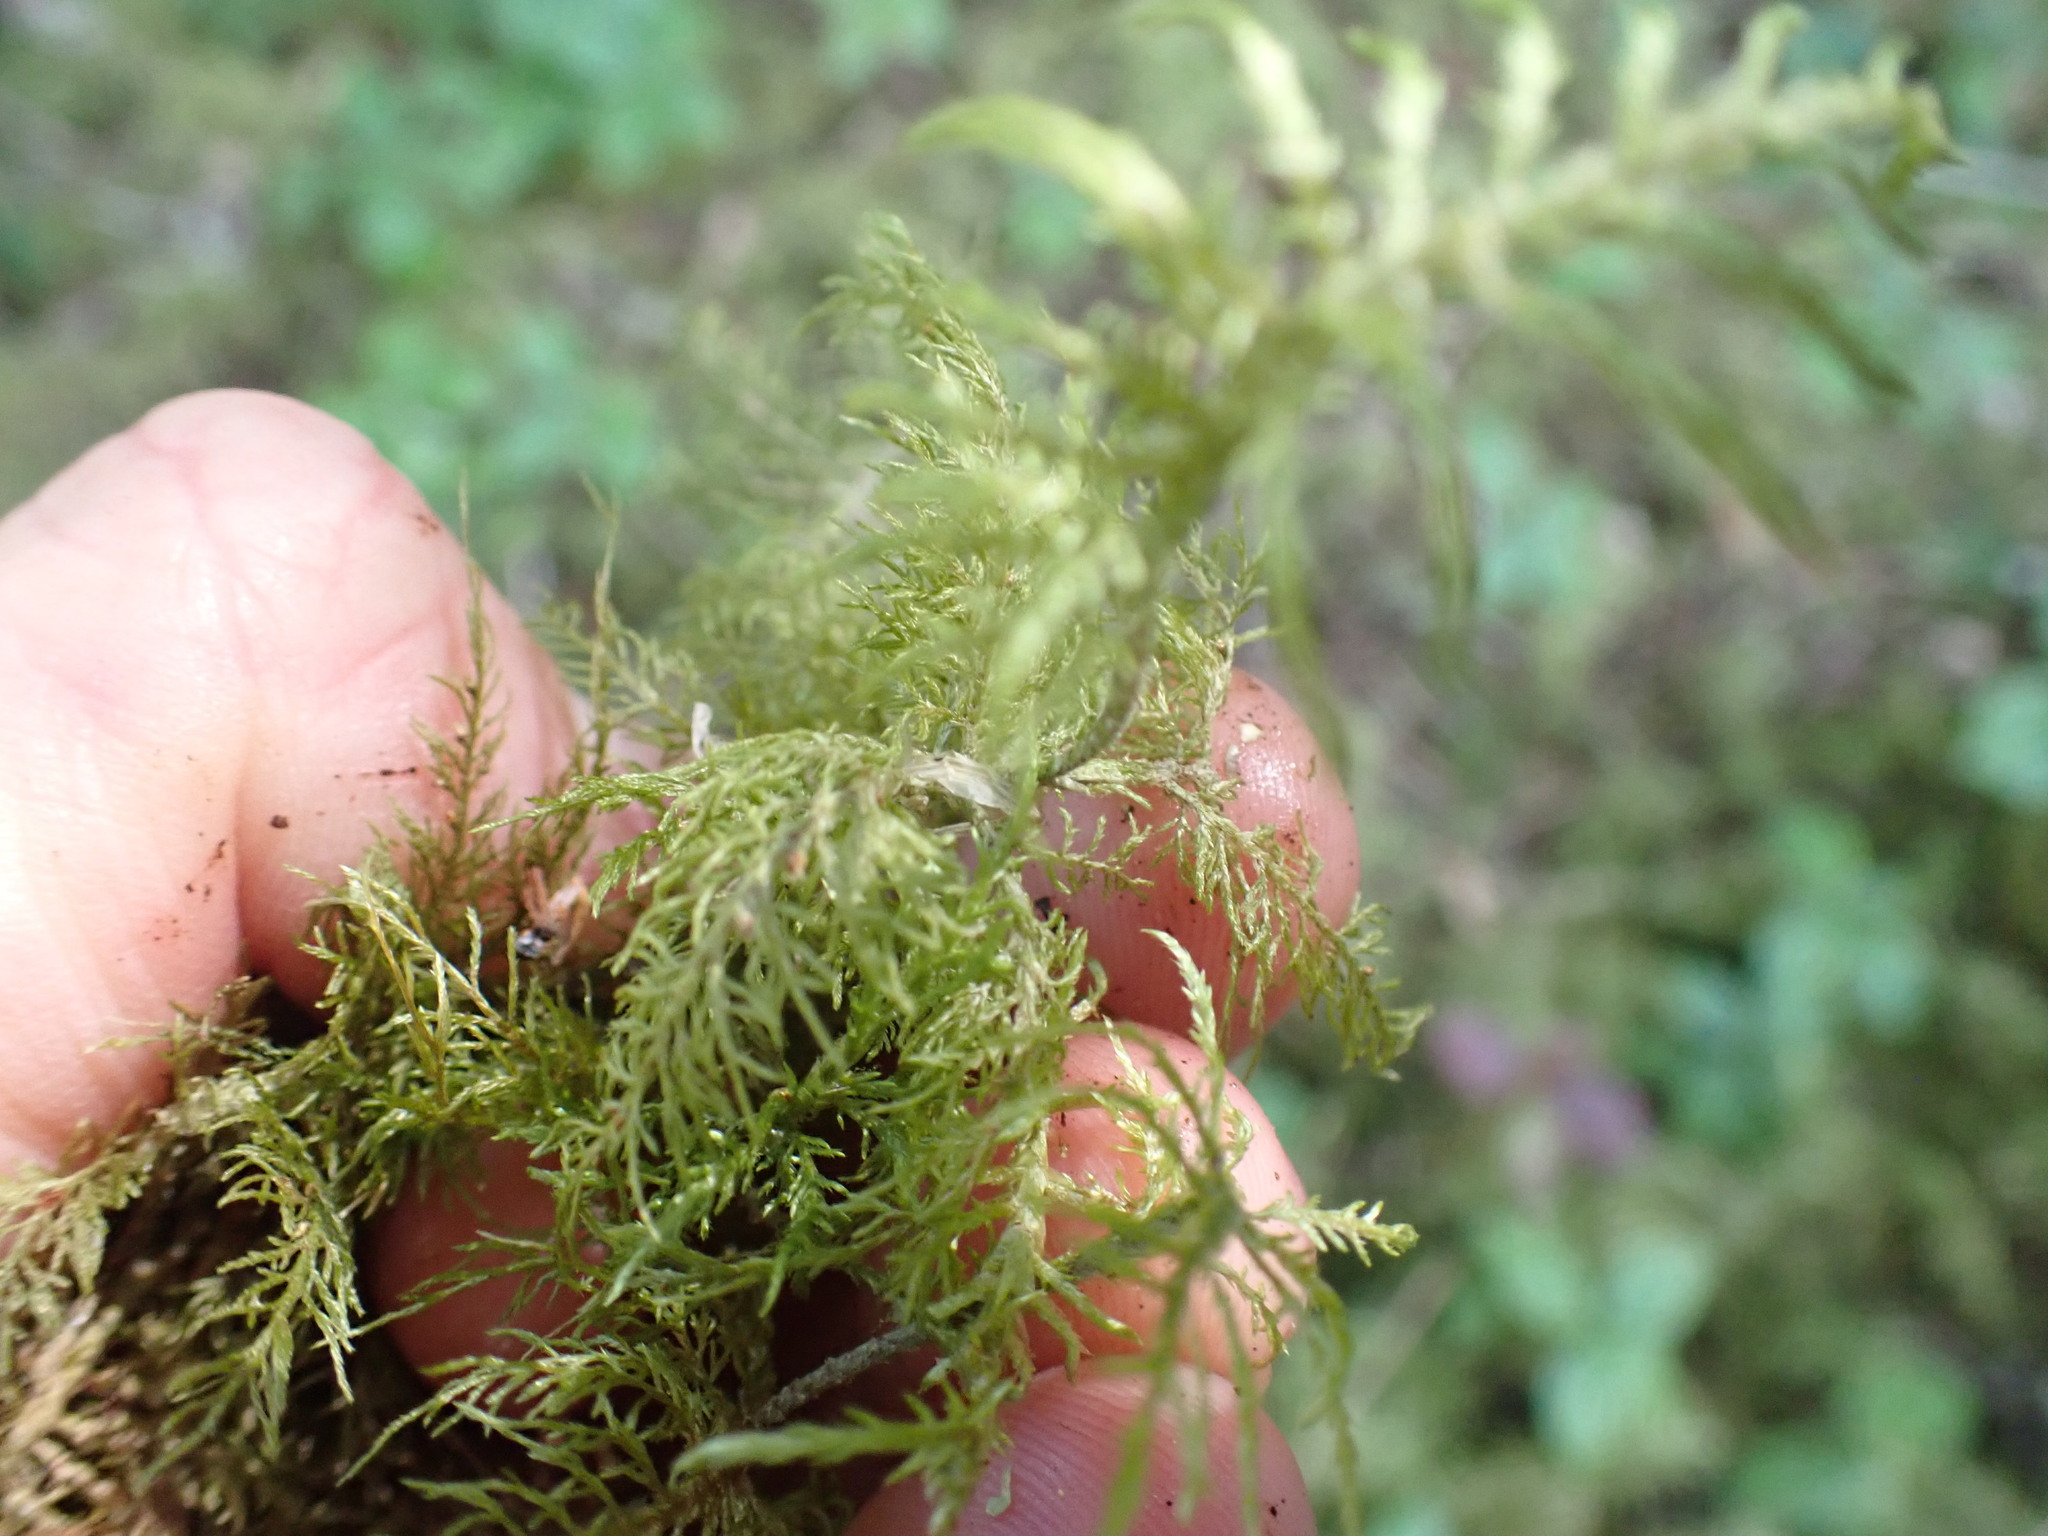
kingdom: Plantae
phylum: Bryophyta
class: Bryopsida
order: Hypnales
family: Hylocomiaceae
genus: Hylocomium
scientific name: Hylocomium splendens
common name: Stairstep moss
